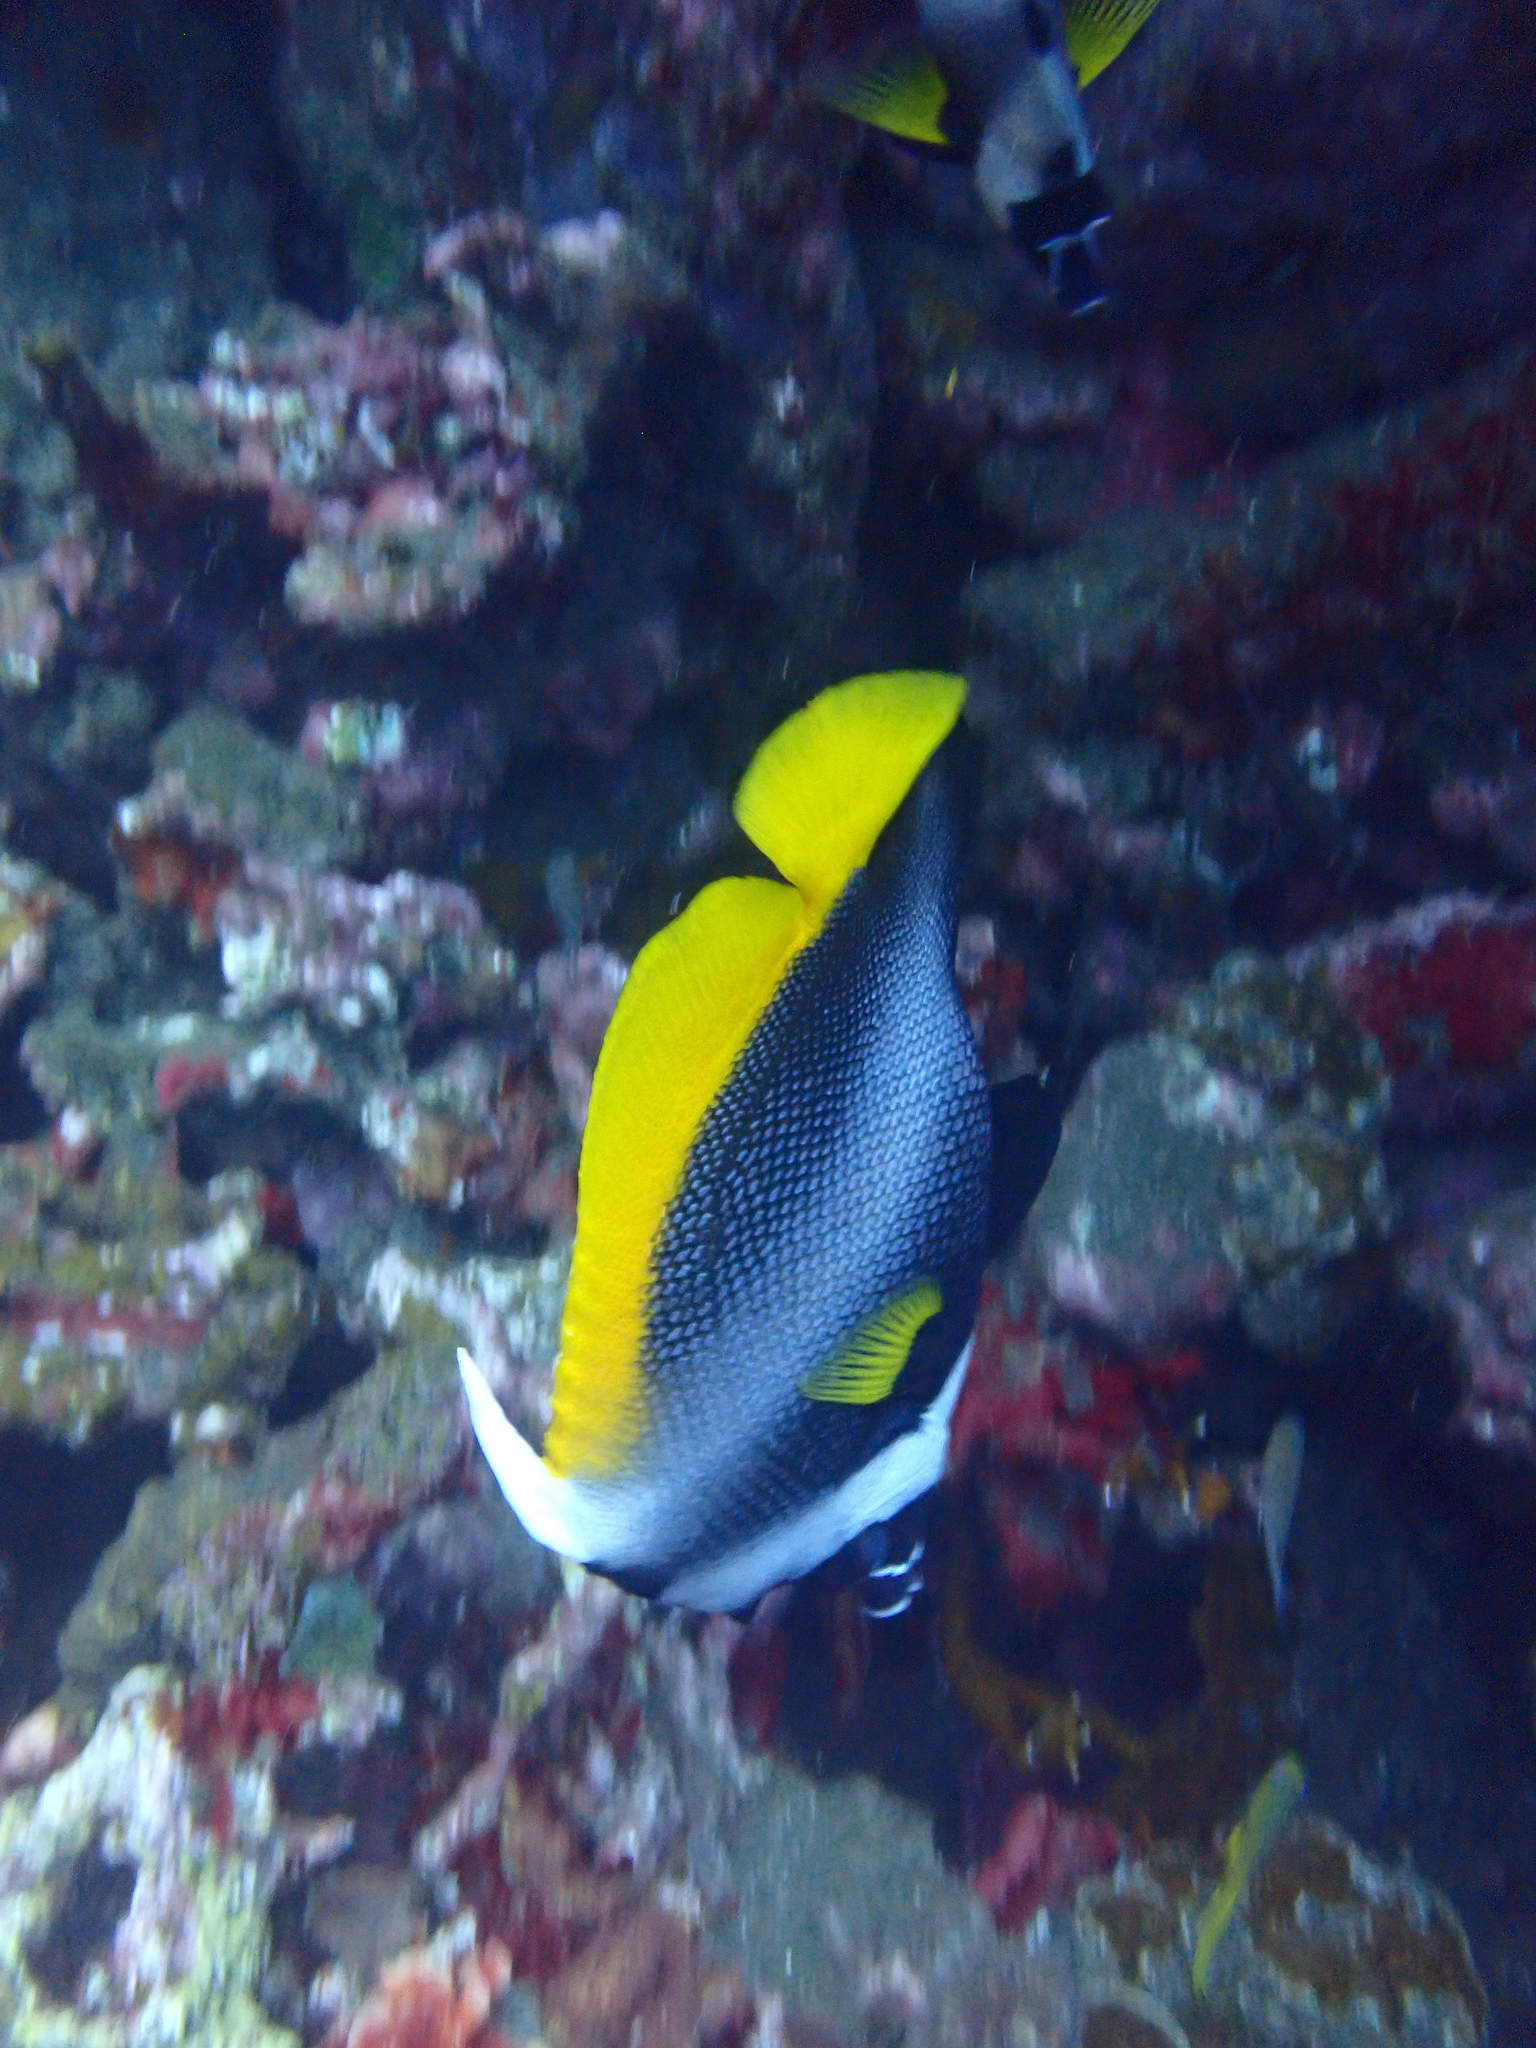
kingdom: Animalia
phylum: Chordata
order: Perciformes
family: Chaetodontidae
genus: Heniochus
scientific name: Heniochus singularius
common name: Singular bannerfish
